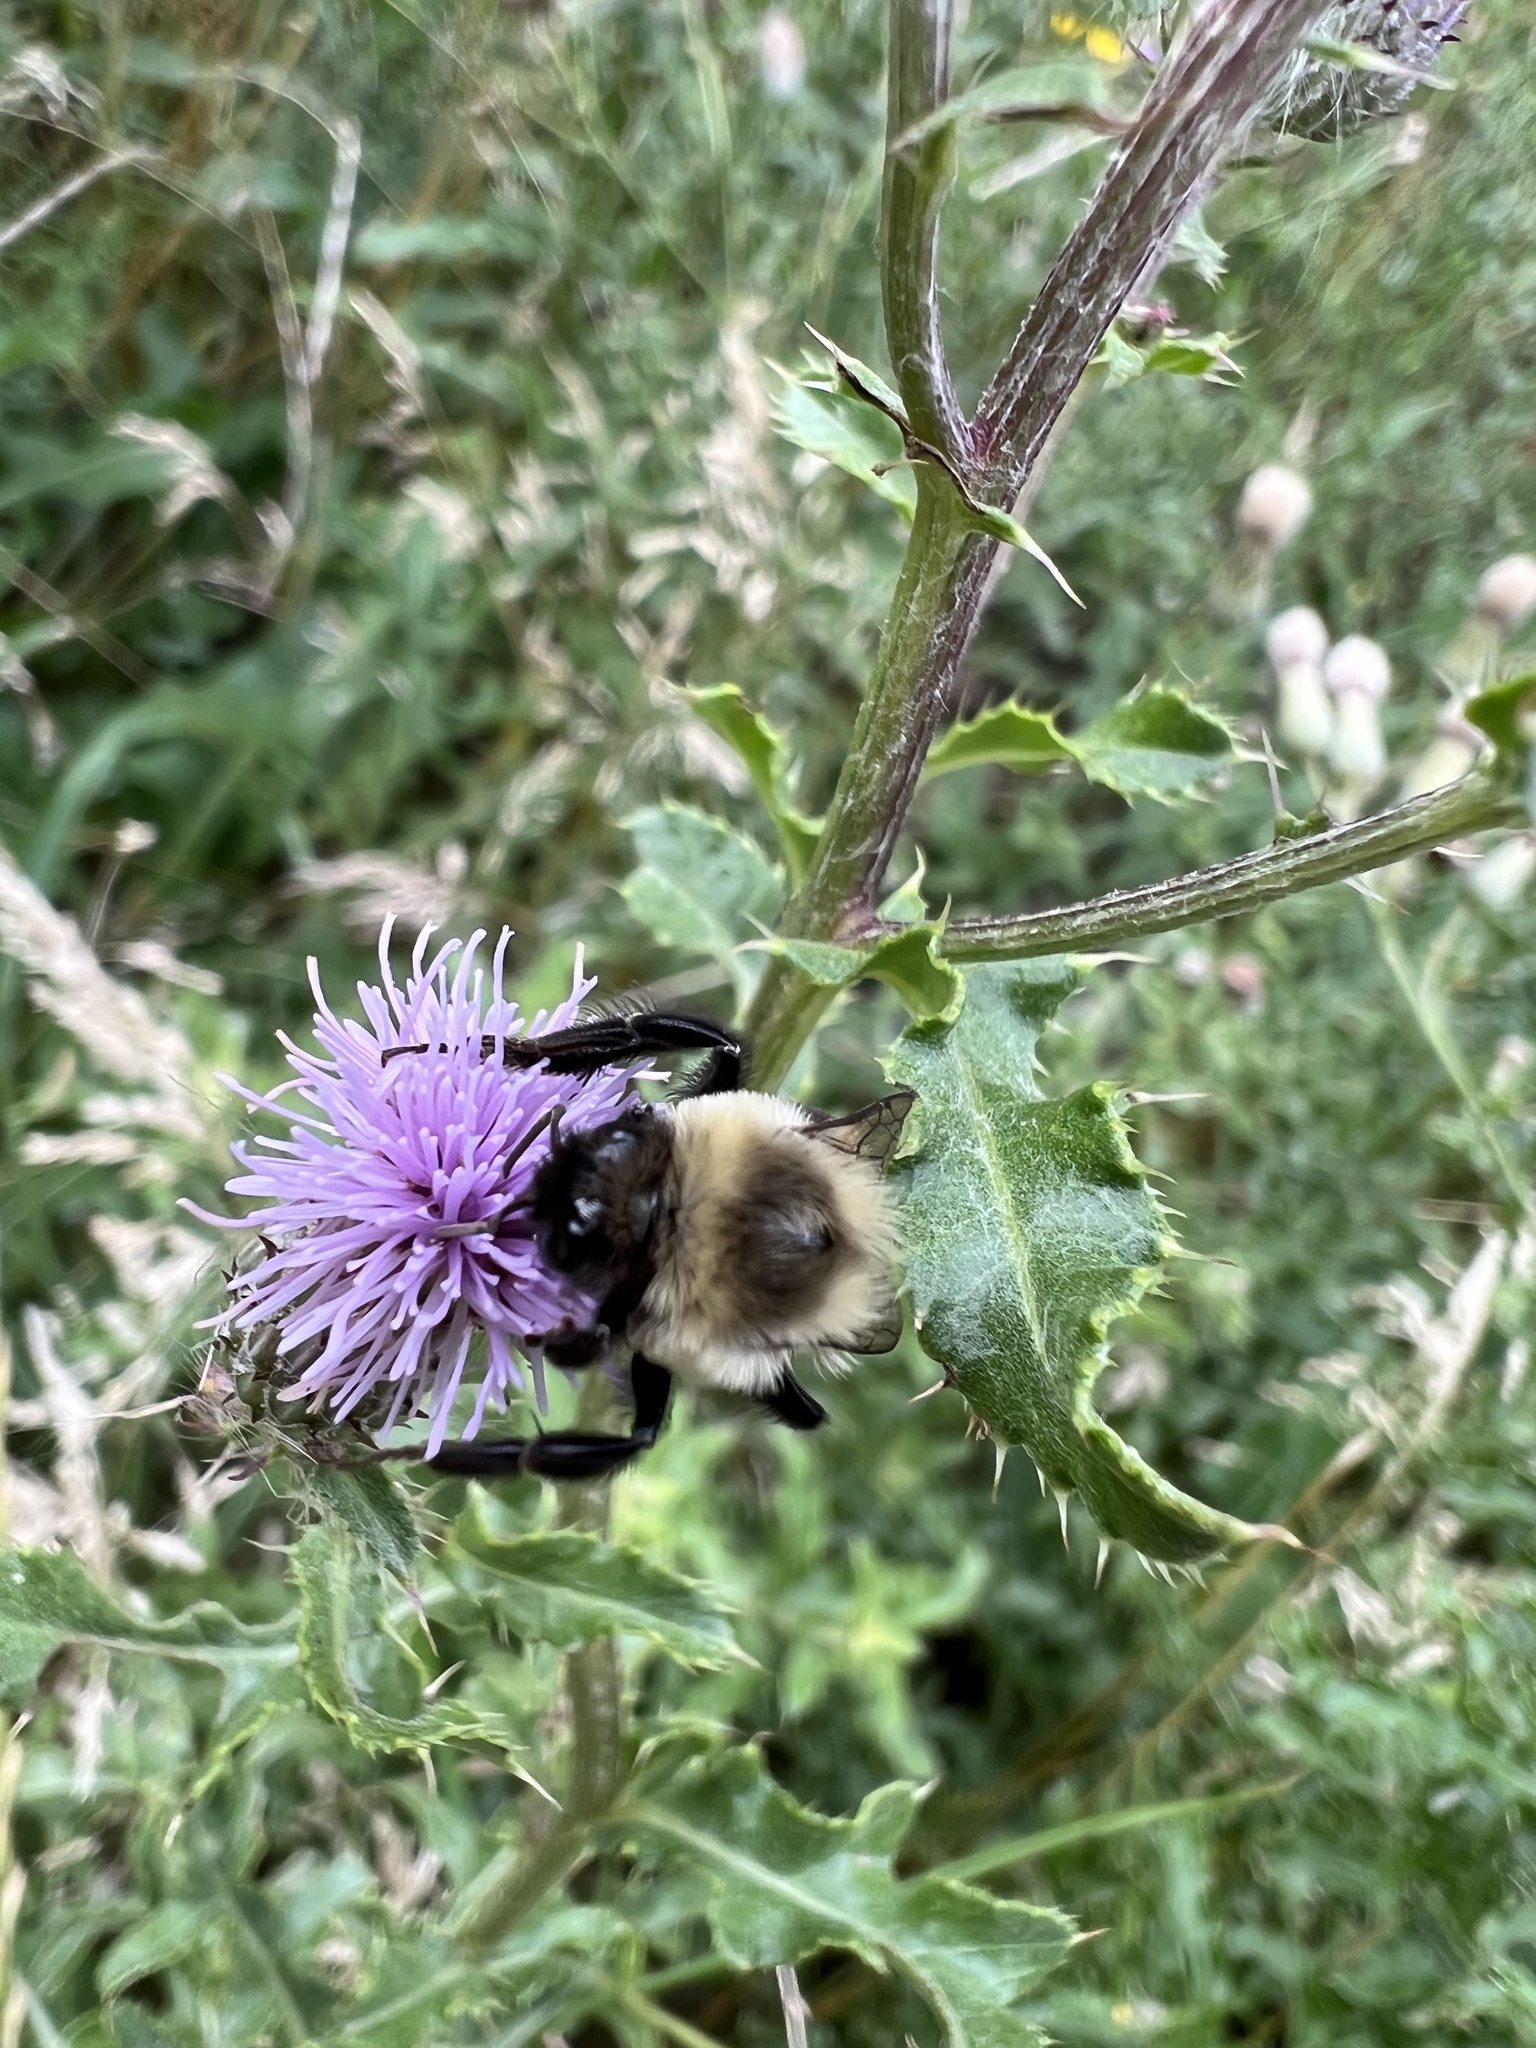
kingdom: Animalia
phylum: Arthropoda
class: Insecta
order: Hymenoptera
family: Apidae
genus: Bombus
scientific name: Bombus impatiens
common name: Common eastern bumble bee
